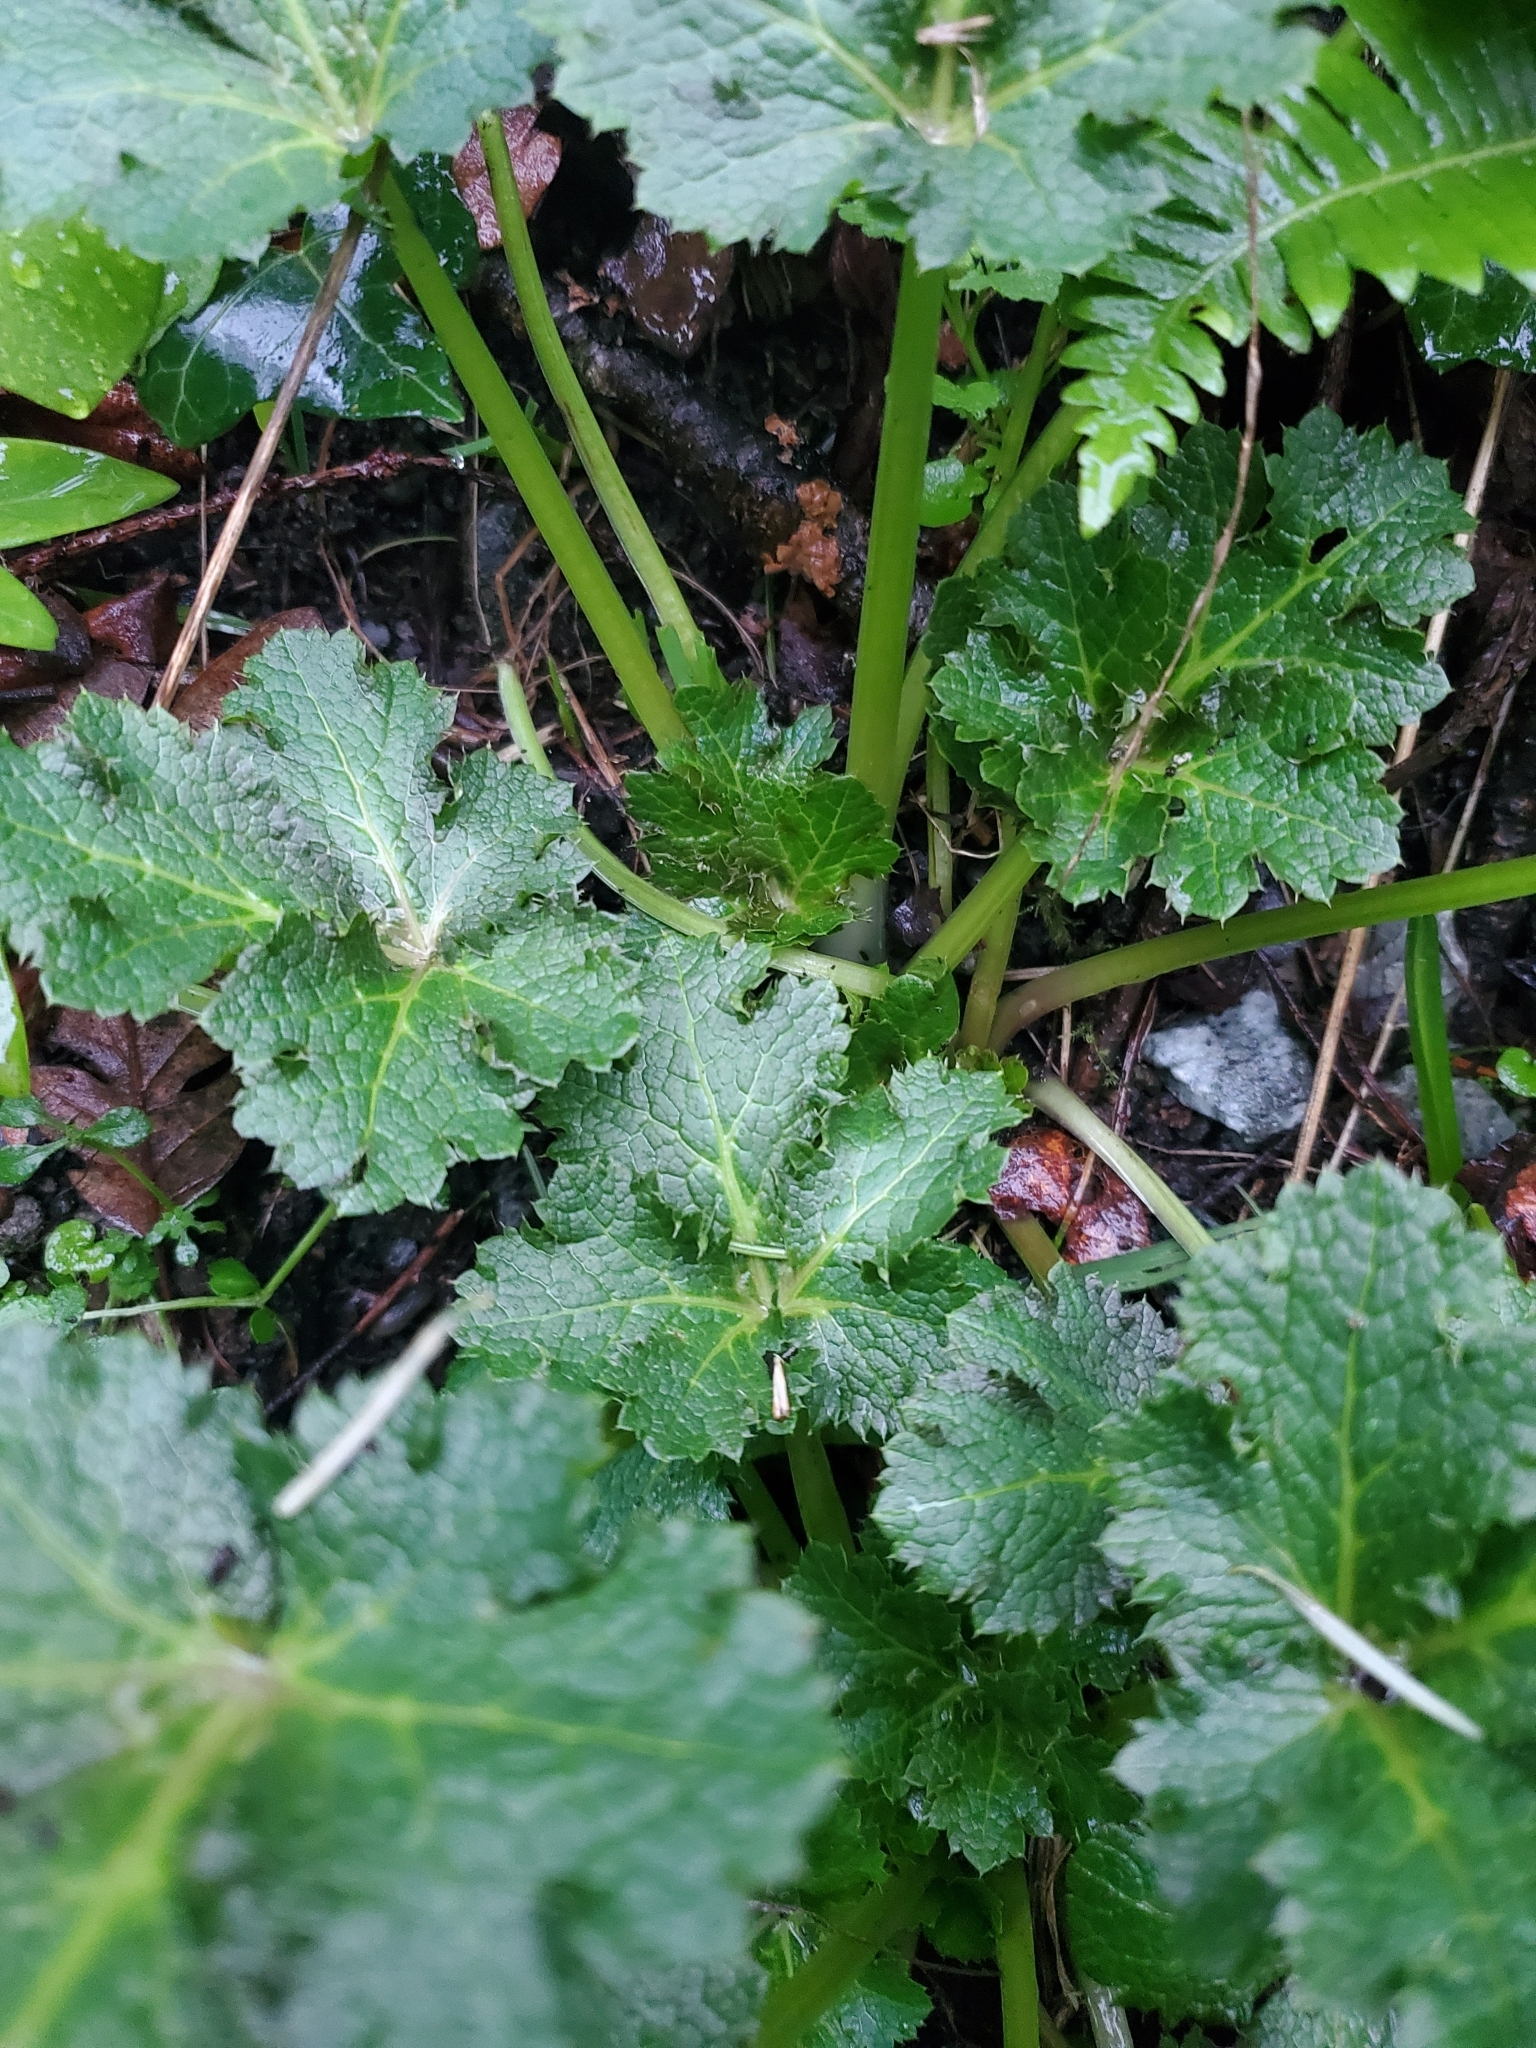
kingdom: Plantae
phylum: Tracheophyta
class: Magnoliopsida
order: Apiales
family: Apiaceae
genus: Sanicula
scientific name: Sanicula crassicaulis
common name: Western snakeroot
